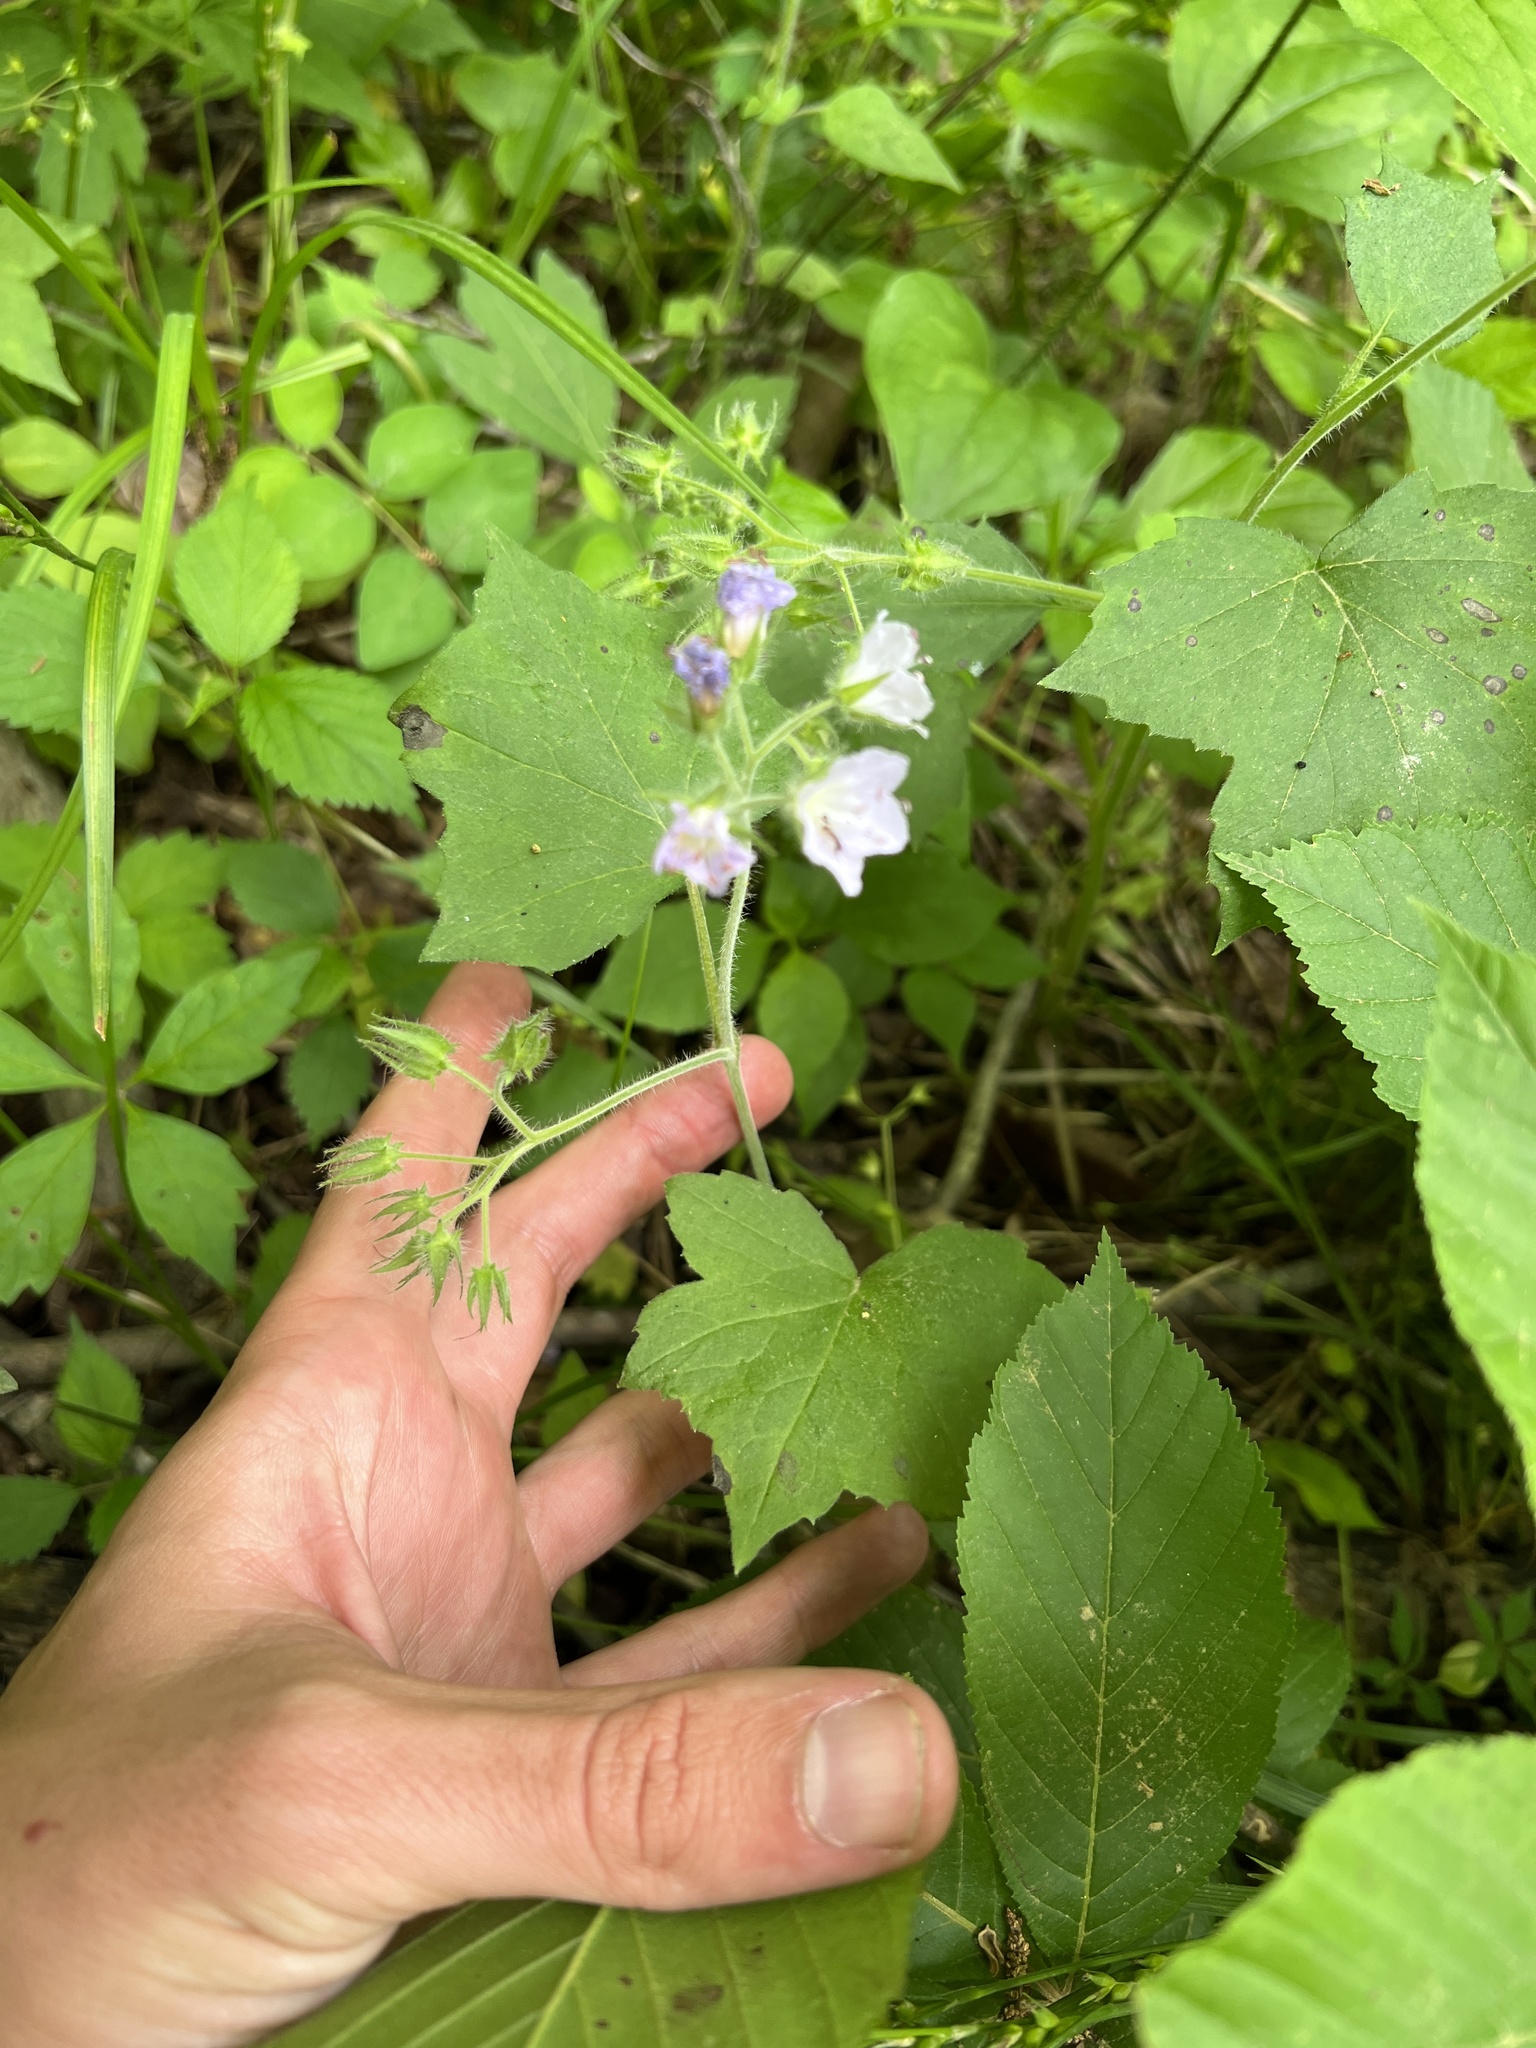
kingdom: Plantae
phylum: Tracheophyta
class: Magnoliopsida
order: Boraginales
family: Hydrophyllaceae
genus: Hydrophyllum
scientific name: Hydrophyllum appendiculatum
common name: Appendaged waterleaf
